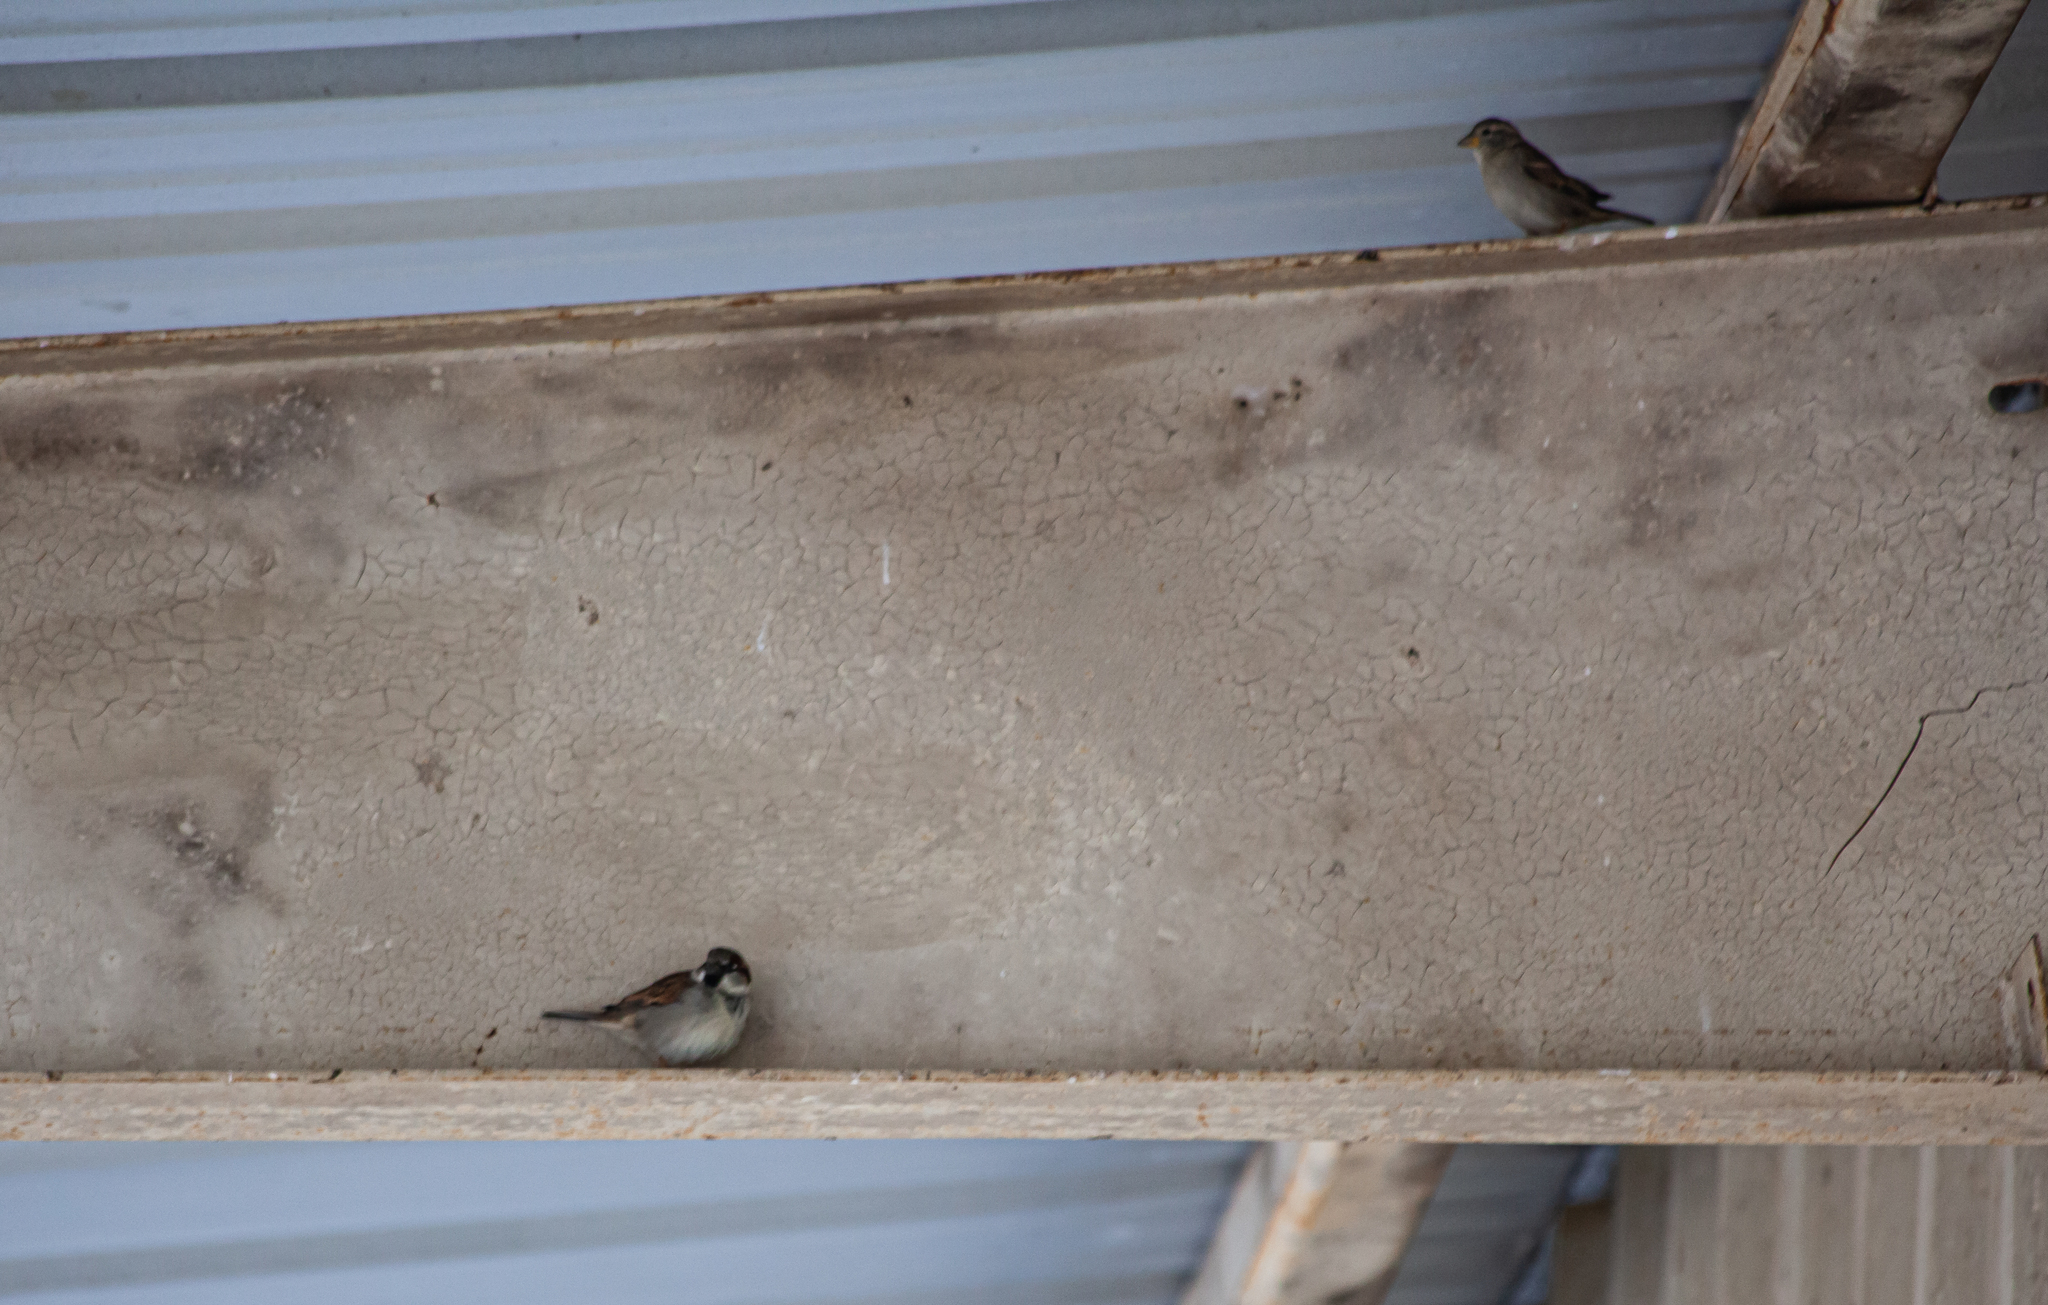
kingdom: Animalia
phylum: Chordata
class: Aves
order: Passeriformes
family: Passeridae
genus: Passer
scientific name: Passer domesticus
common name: House sparrow
